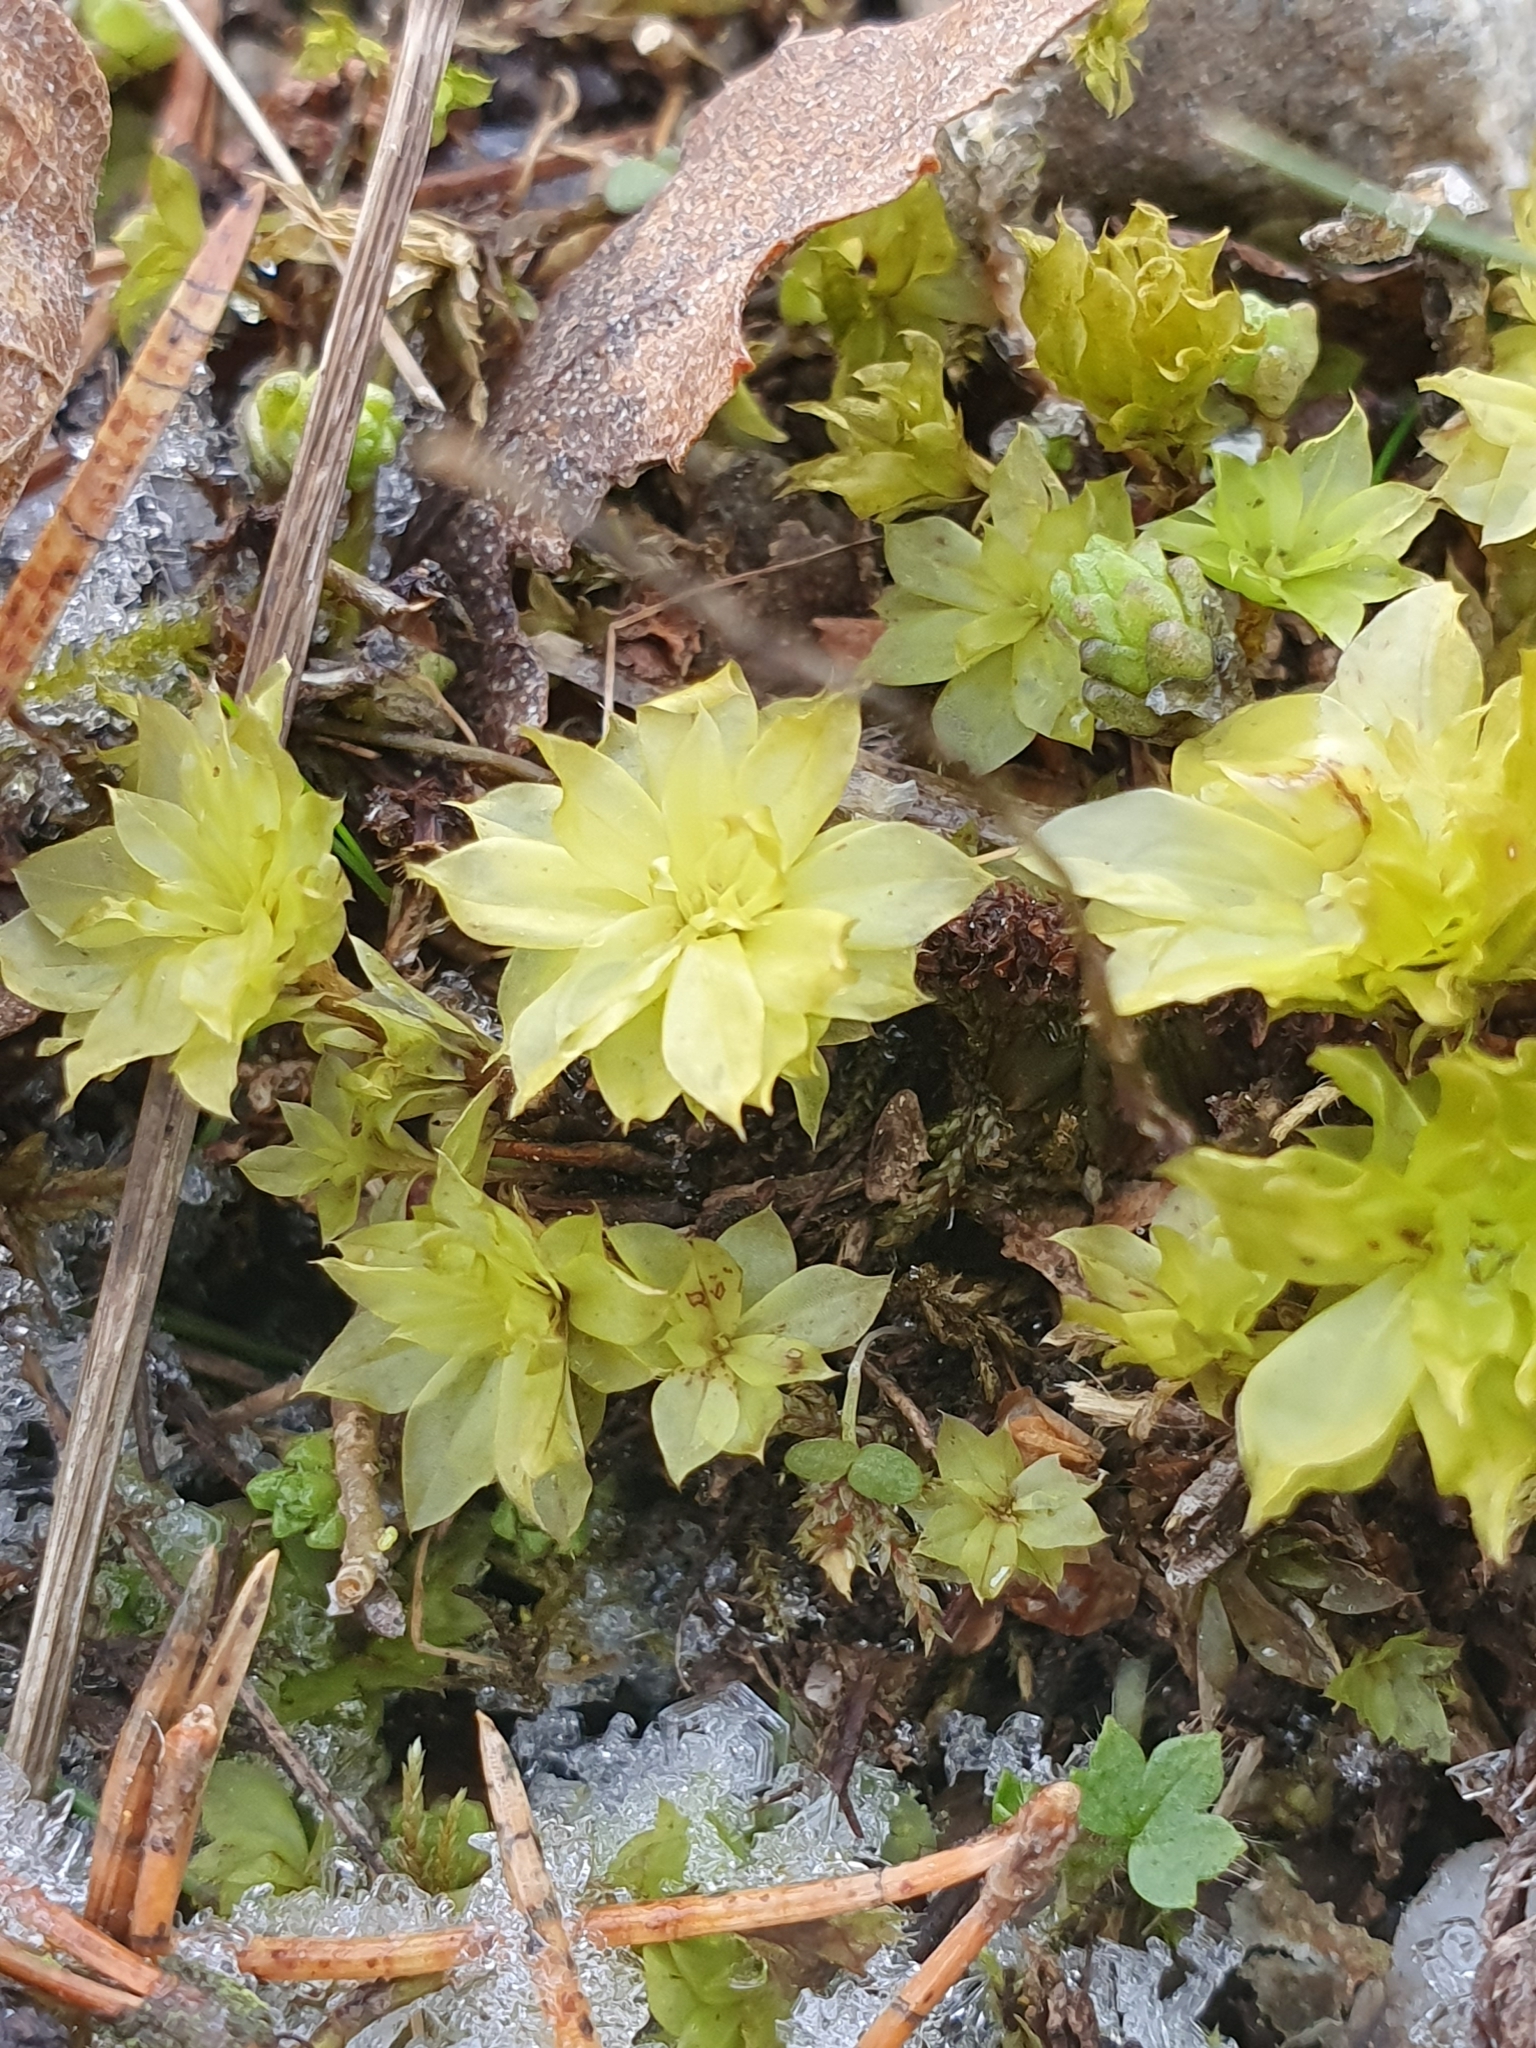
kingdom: Plantae
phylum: Bryophyta
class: Bryopsida
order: Bryales
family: Bryaceae
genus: Rhodobryum
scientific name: Rhodobryum roseum
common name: Rose-moss
